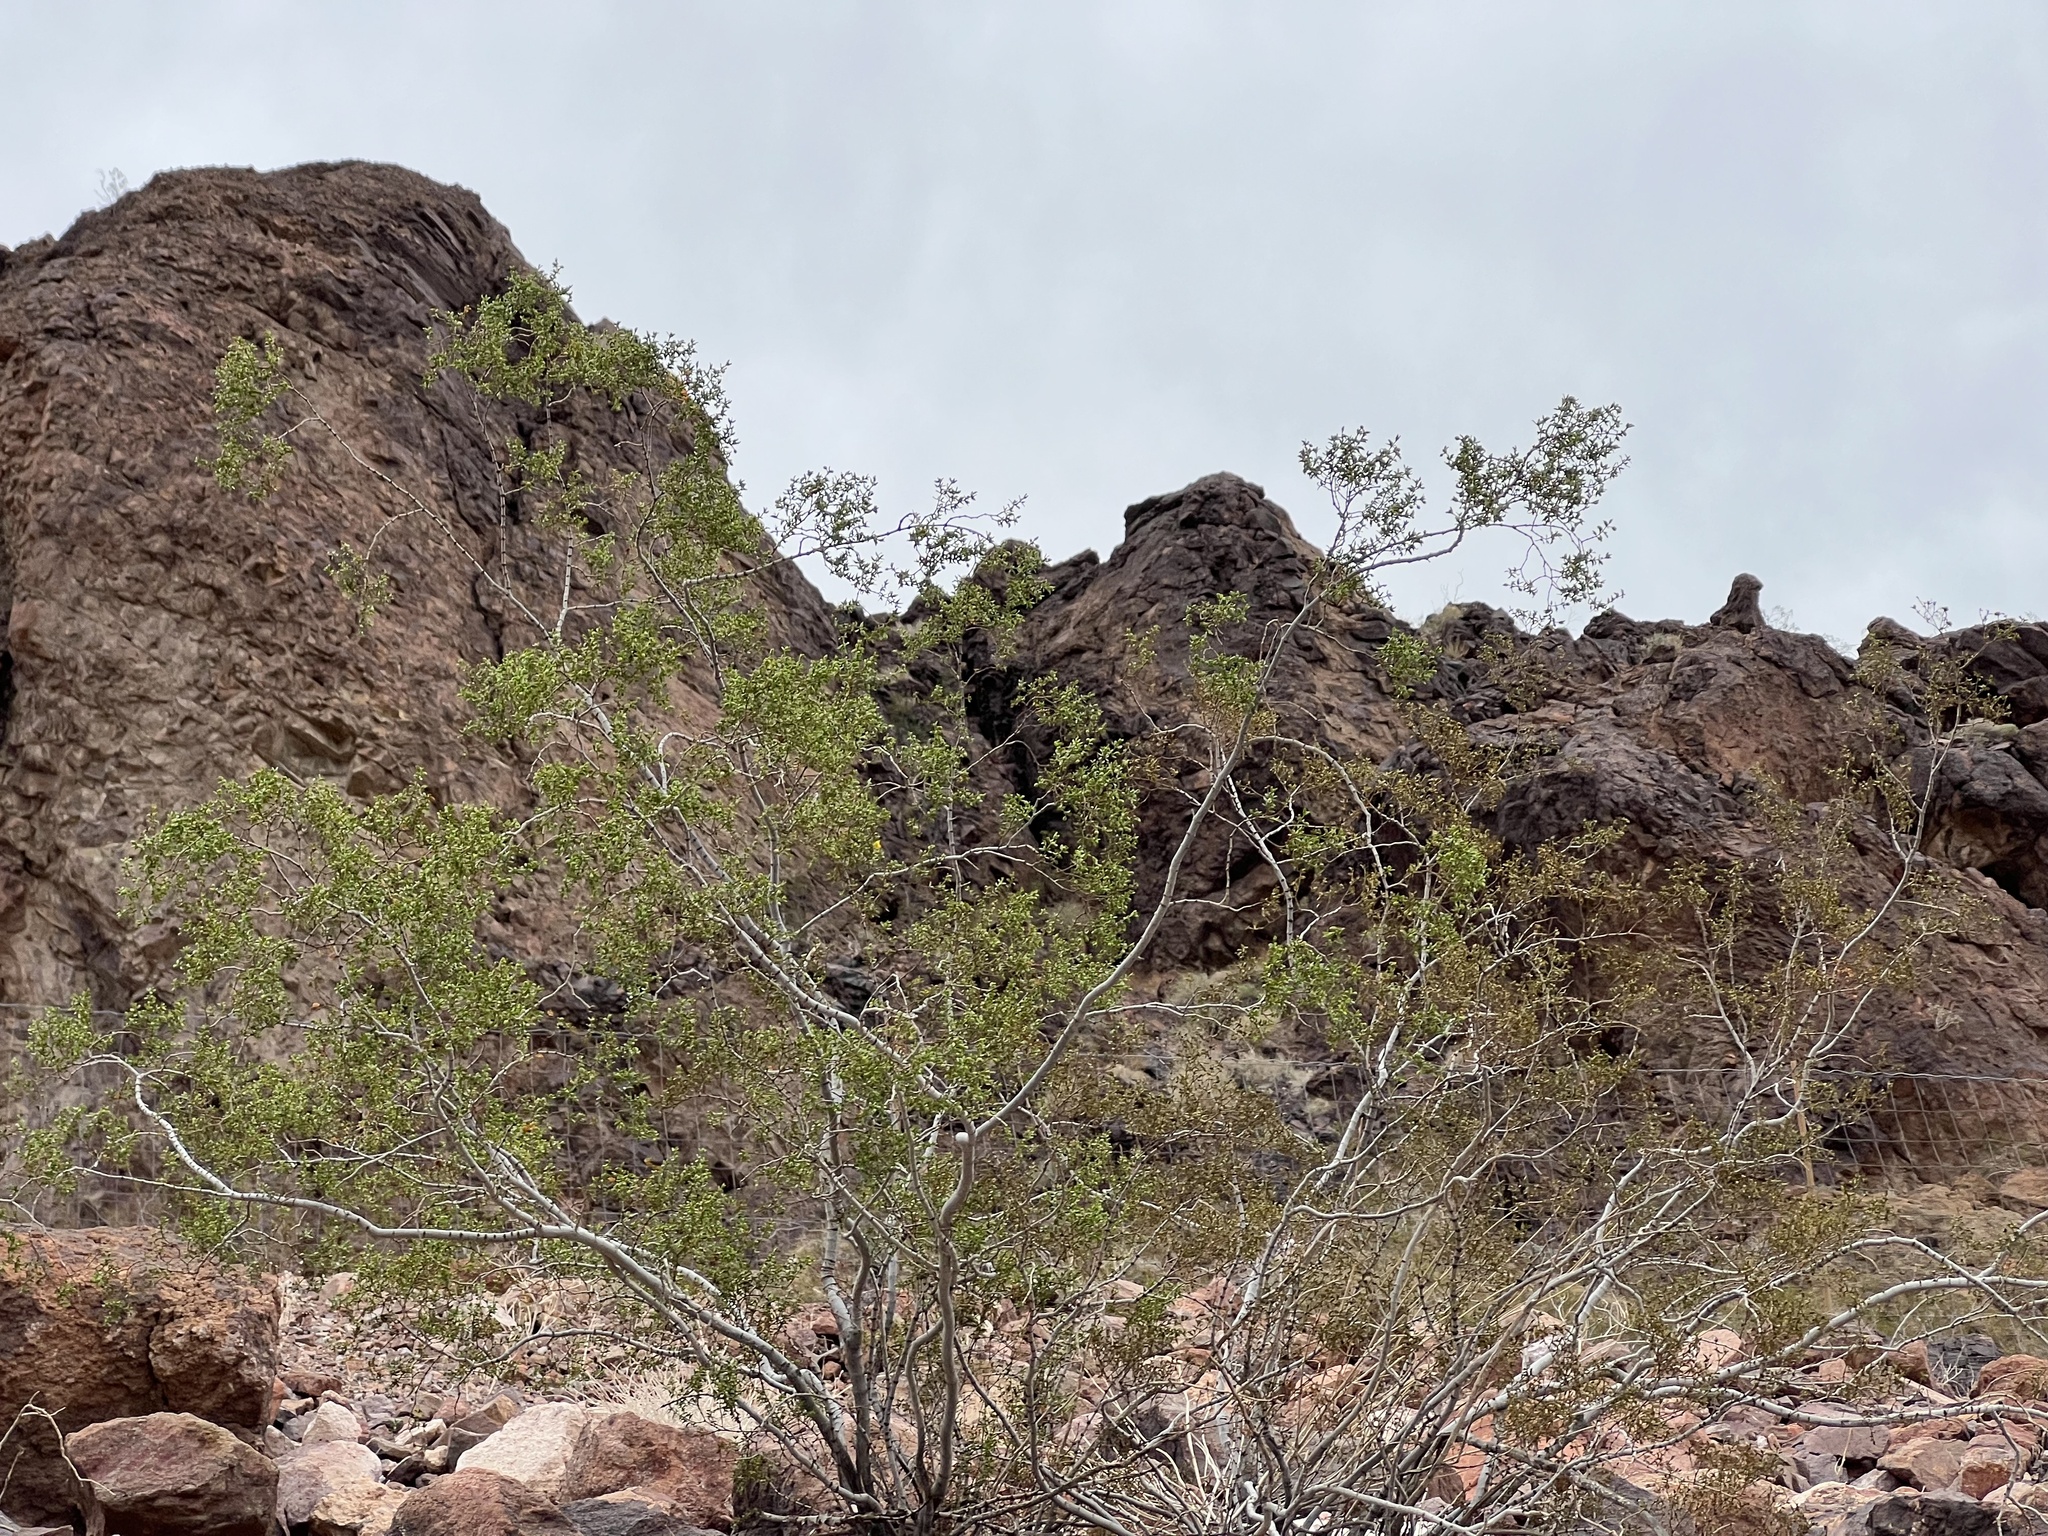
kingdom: Plantae
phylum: Tracheophyta
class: Magnoliopsida
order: Zygophyllales
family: Zygophyllaceae
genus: Larrea
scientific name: Larrea tridentata
